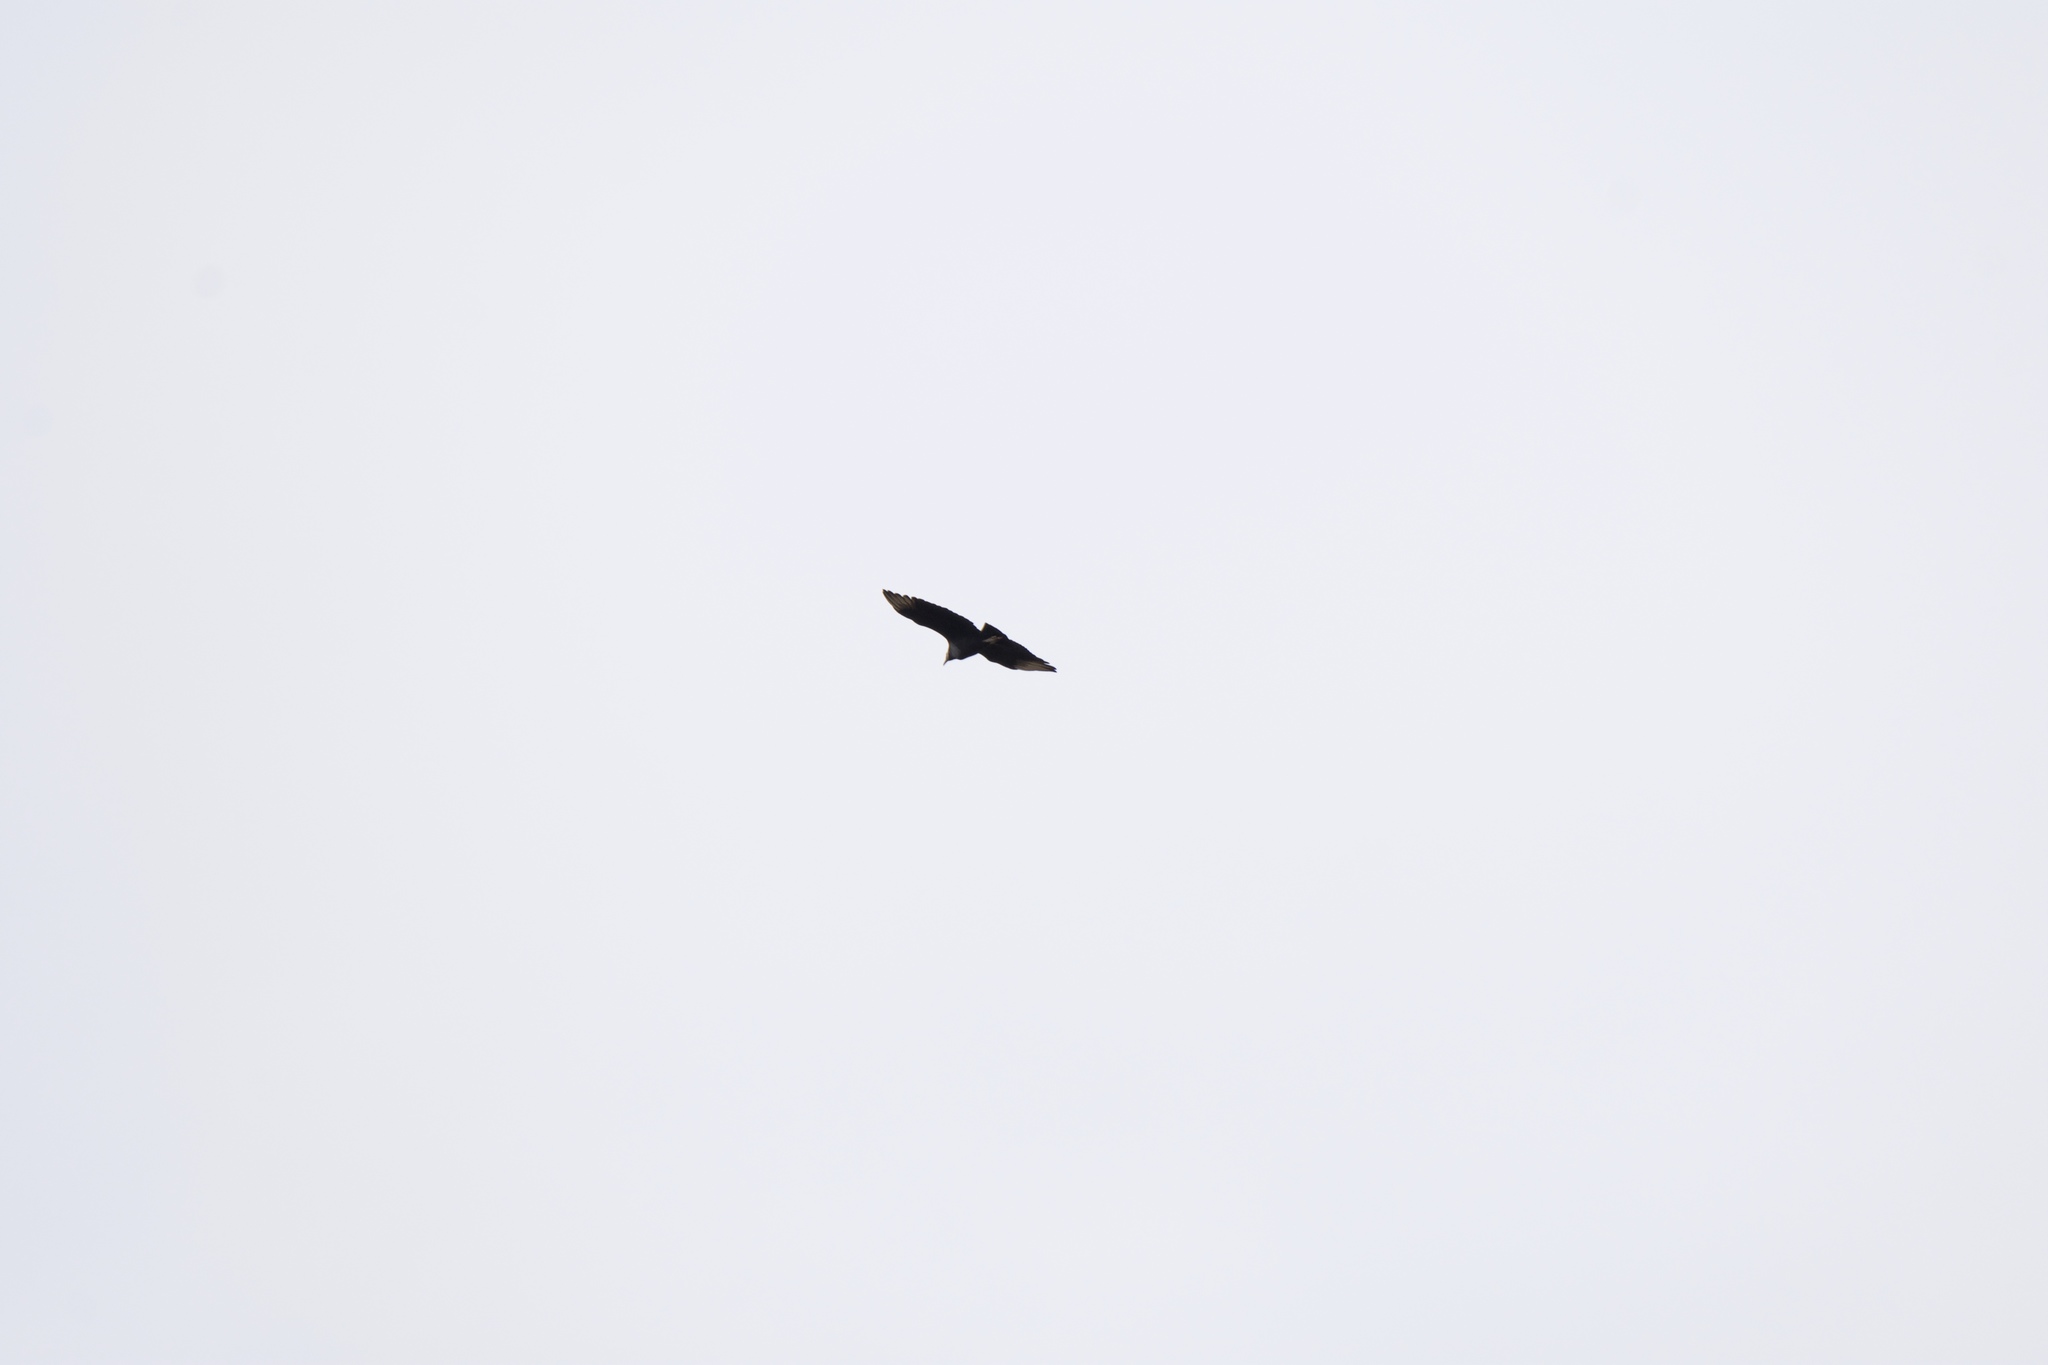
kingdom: Animalia
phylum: Chordata
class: Aves
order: Accipitriformes
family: Cathartidae
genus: Coragyps
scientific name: Coragyps atratus
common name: Black vulture
